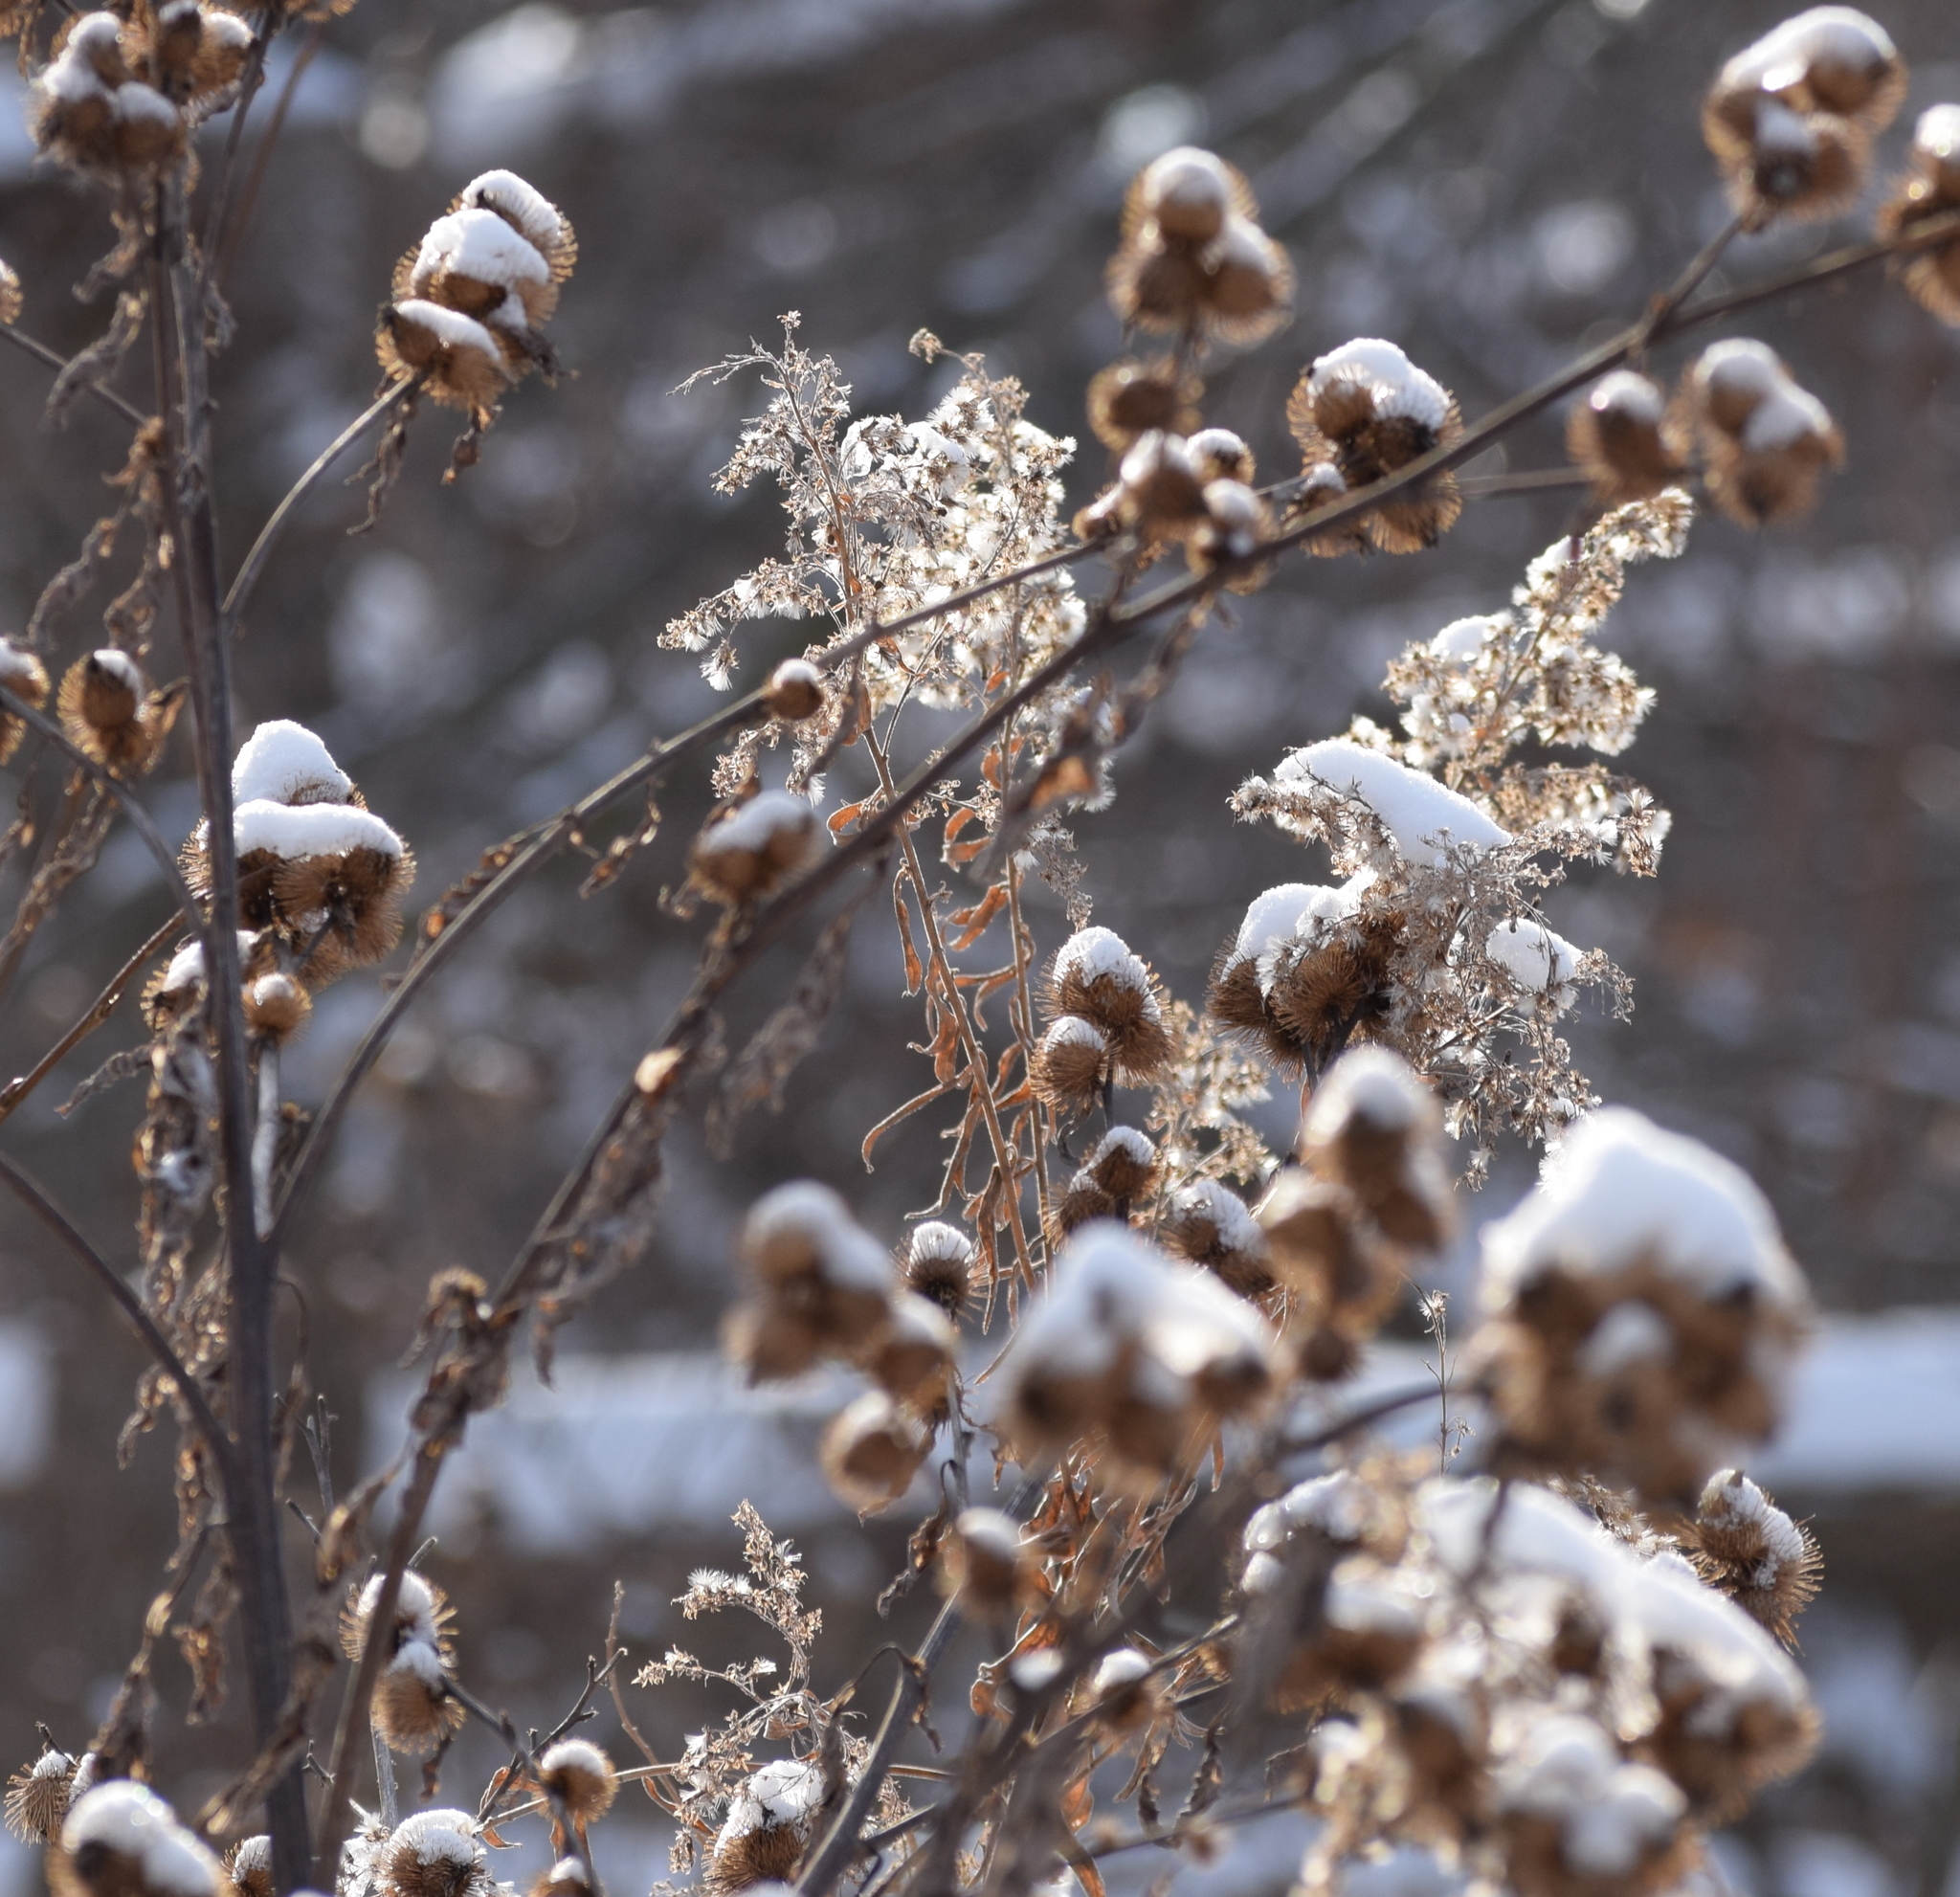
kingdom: Plantae
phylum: Tracheophyta
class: Magnoliopsida
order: Asterales
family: Asteraceae
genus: Arctium
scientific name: Arctium minus
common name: Lesser burdock
